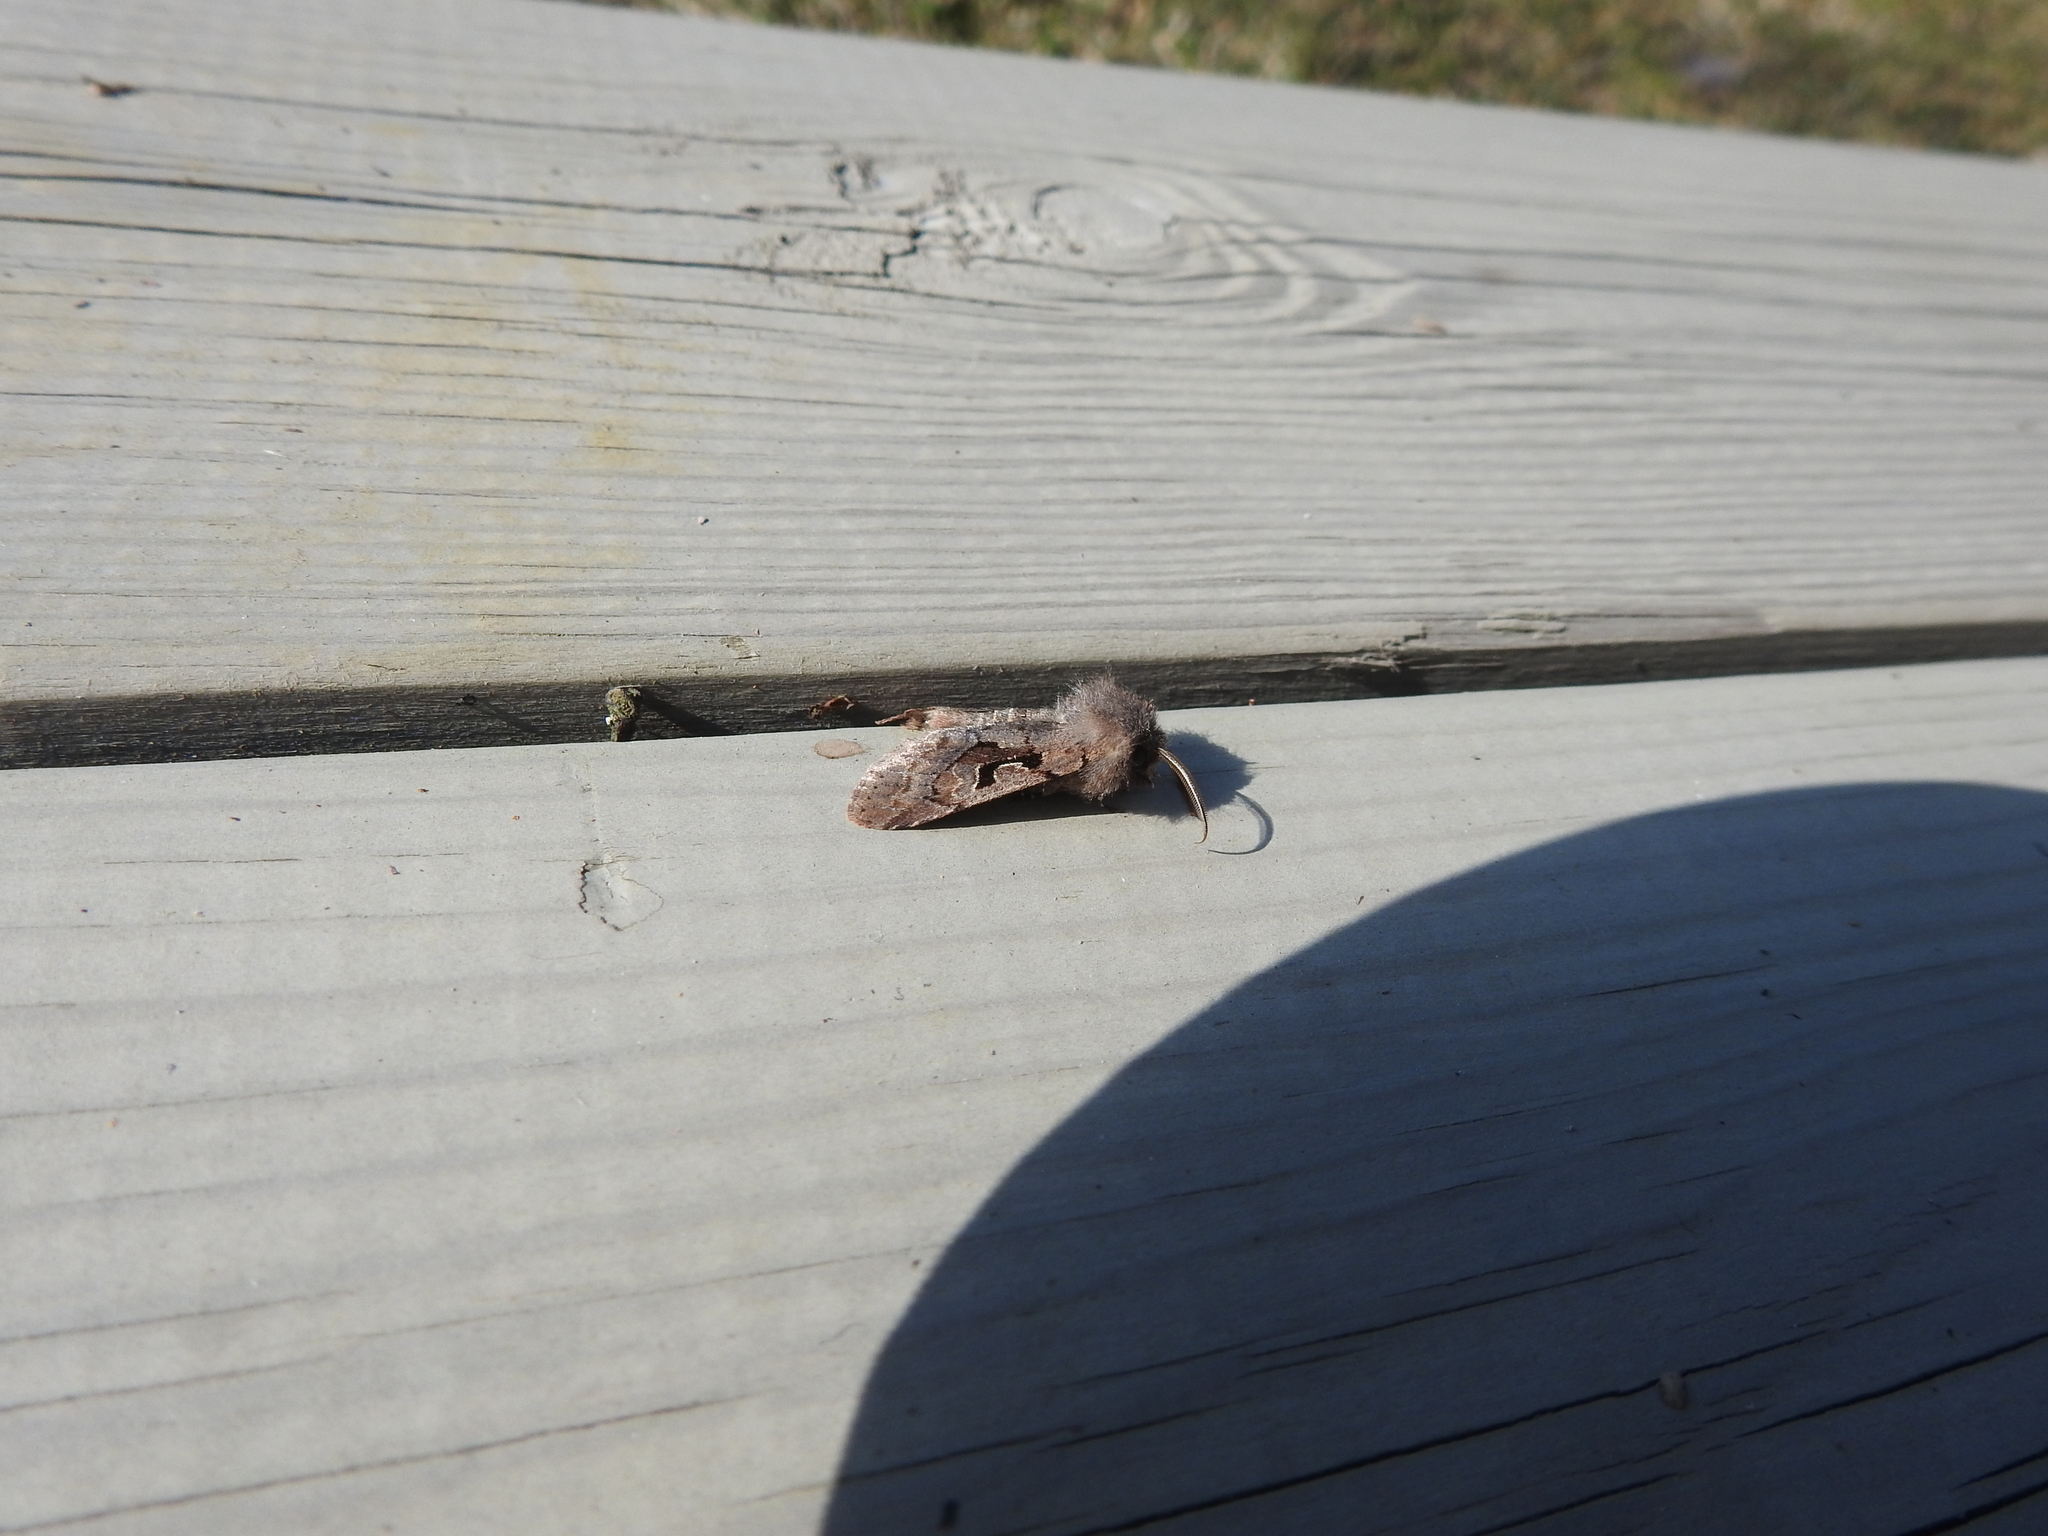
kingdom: Animalia
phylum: Arthropoda
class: Insecta
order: Lepidoptera
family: Noctuidae
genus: Orthosia
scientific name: Orthosia gothica
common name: Hebrew character
